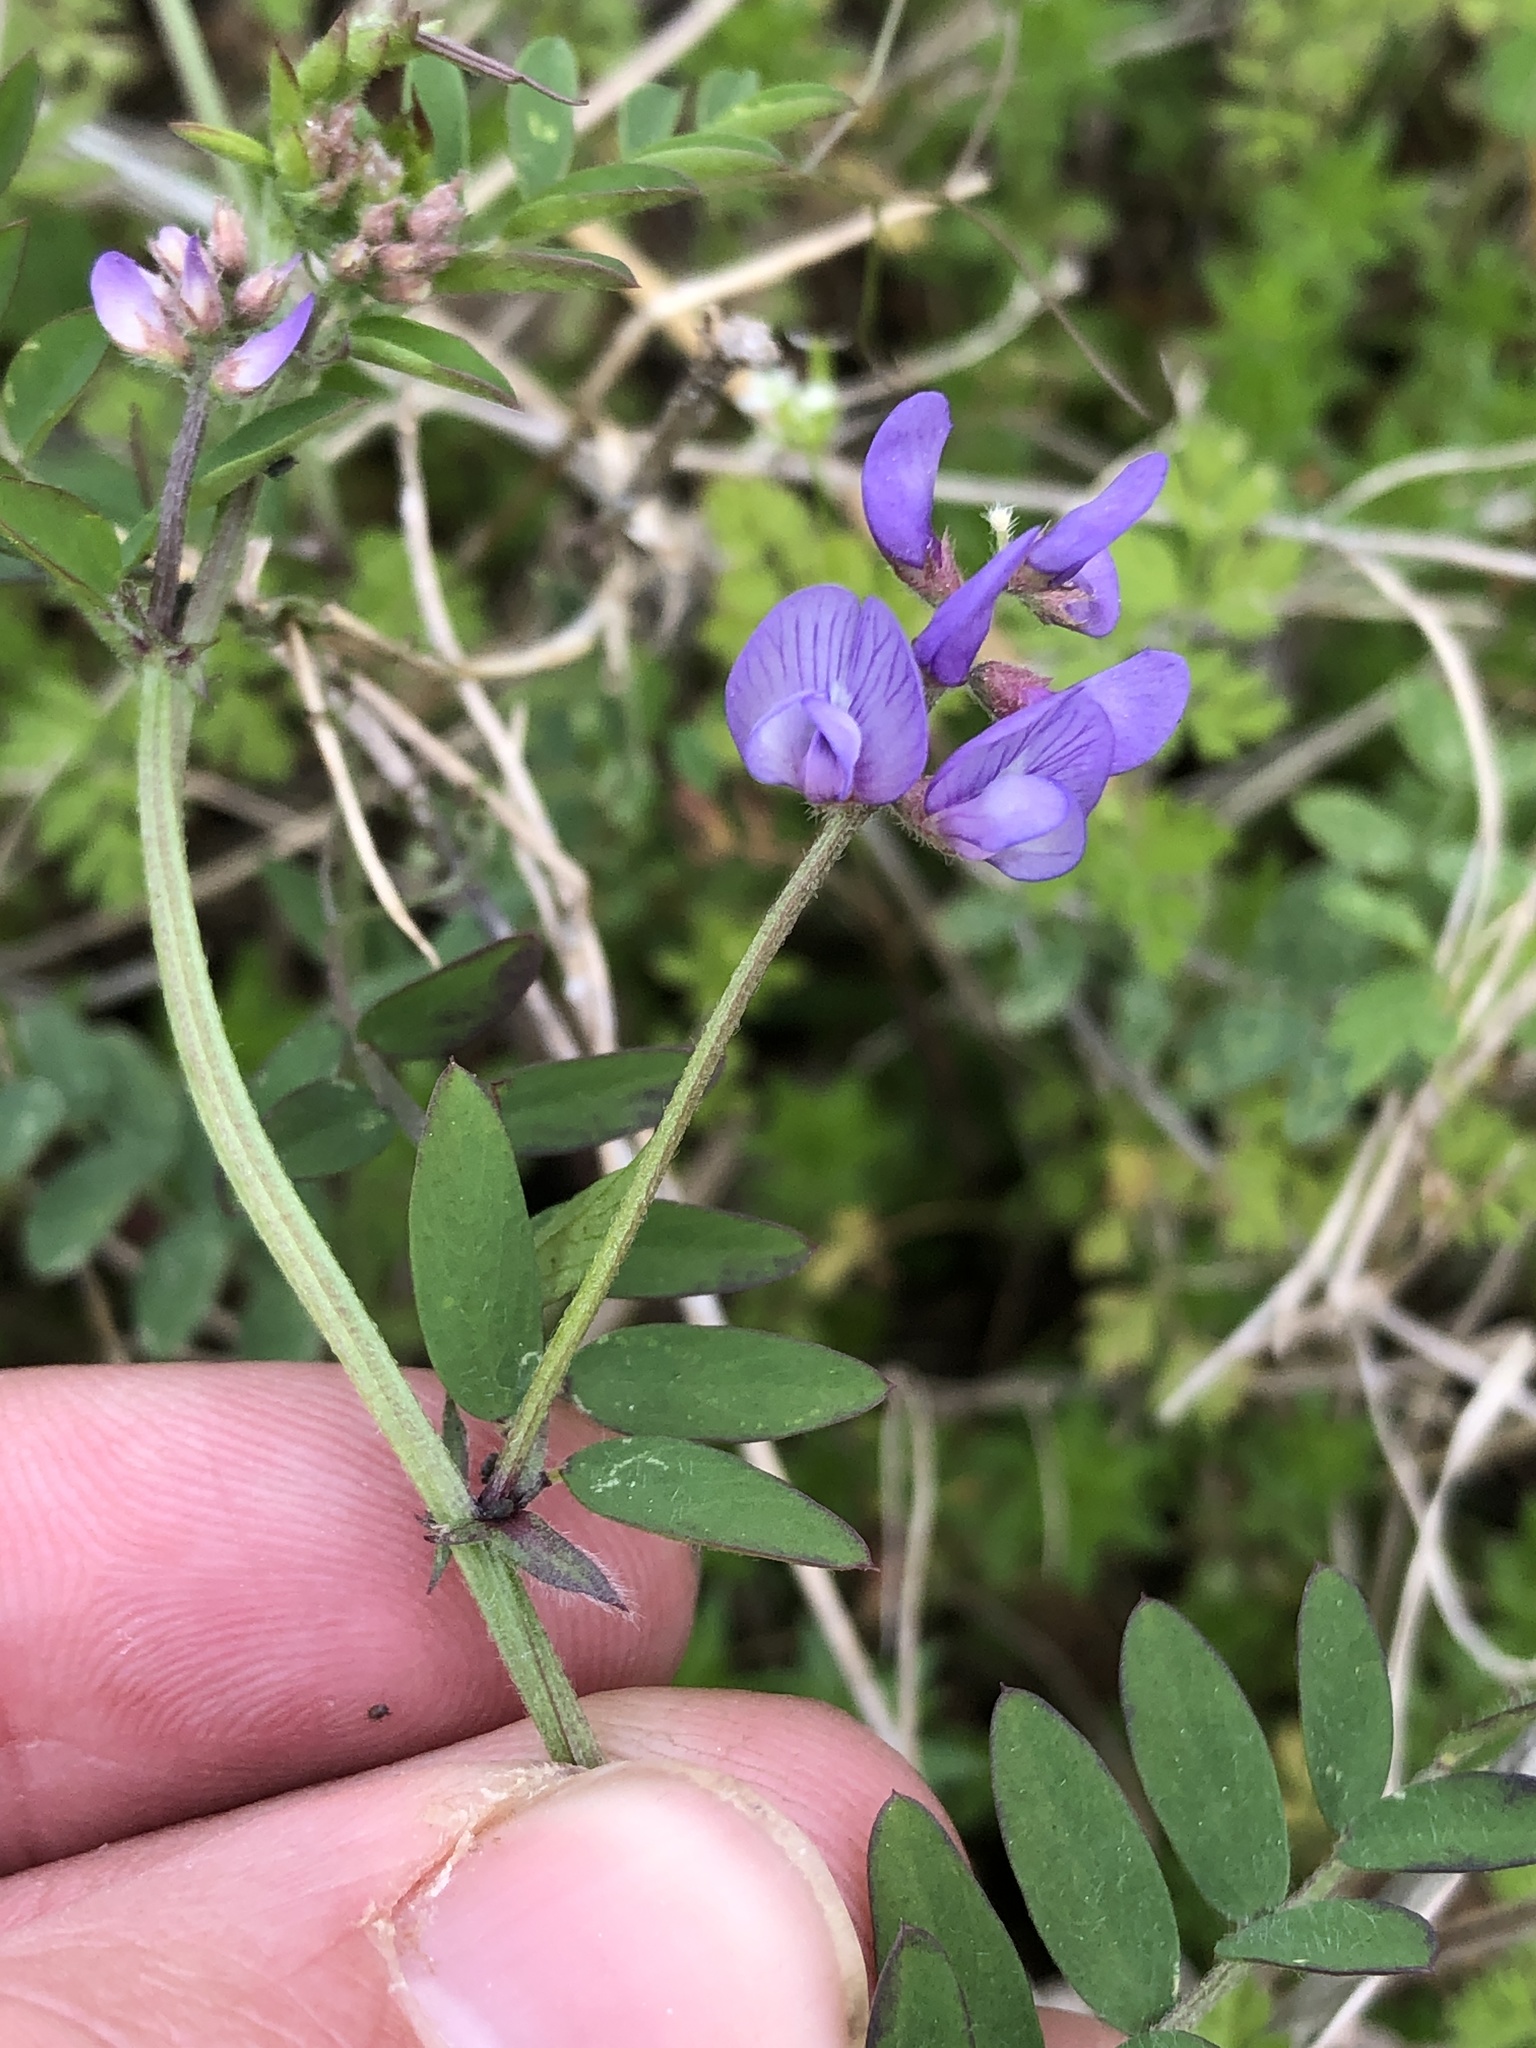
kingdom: Plantae
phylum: Tracheophyta
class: Magnoliopsida
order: Fabales
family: Fabaceae
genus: Vicia
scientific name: Vicia ludoviciana
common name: Louisiana vetch
